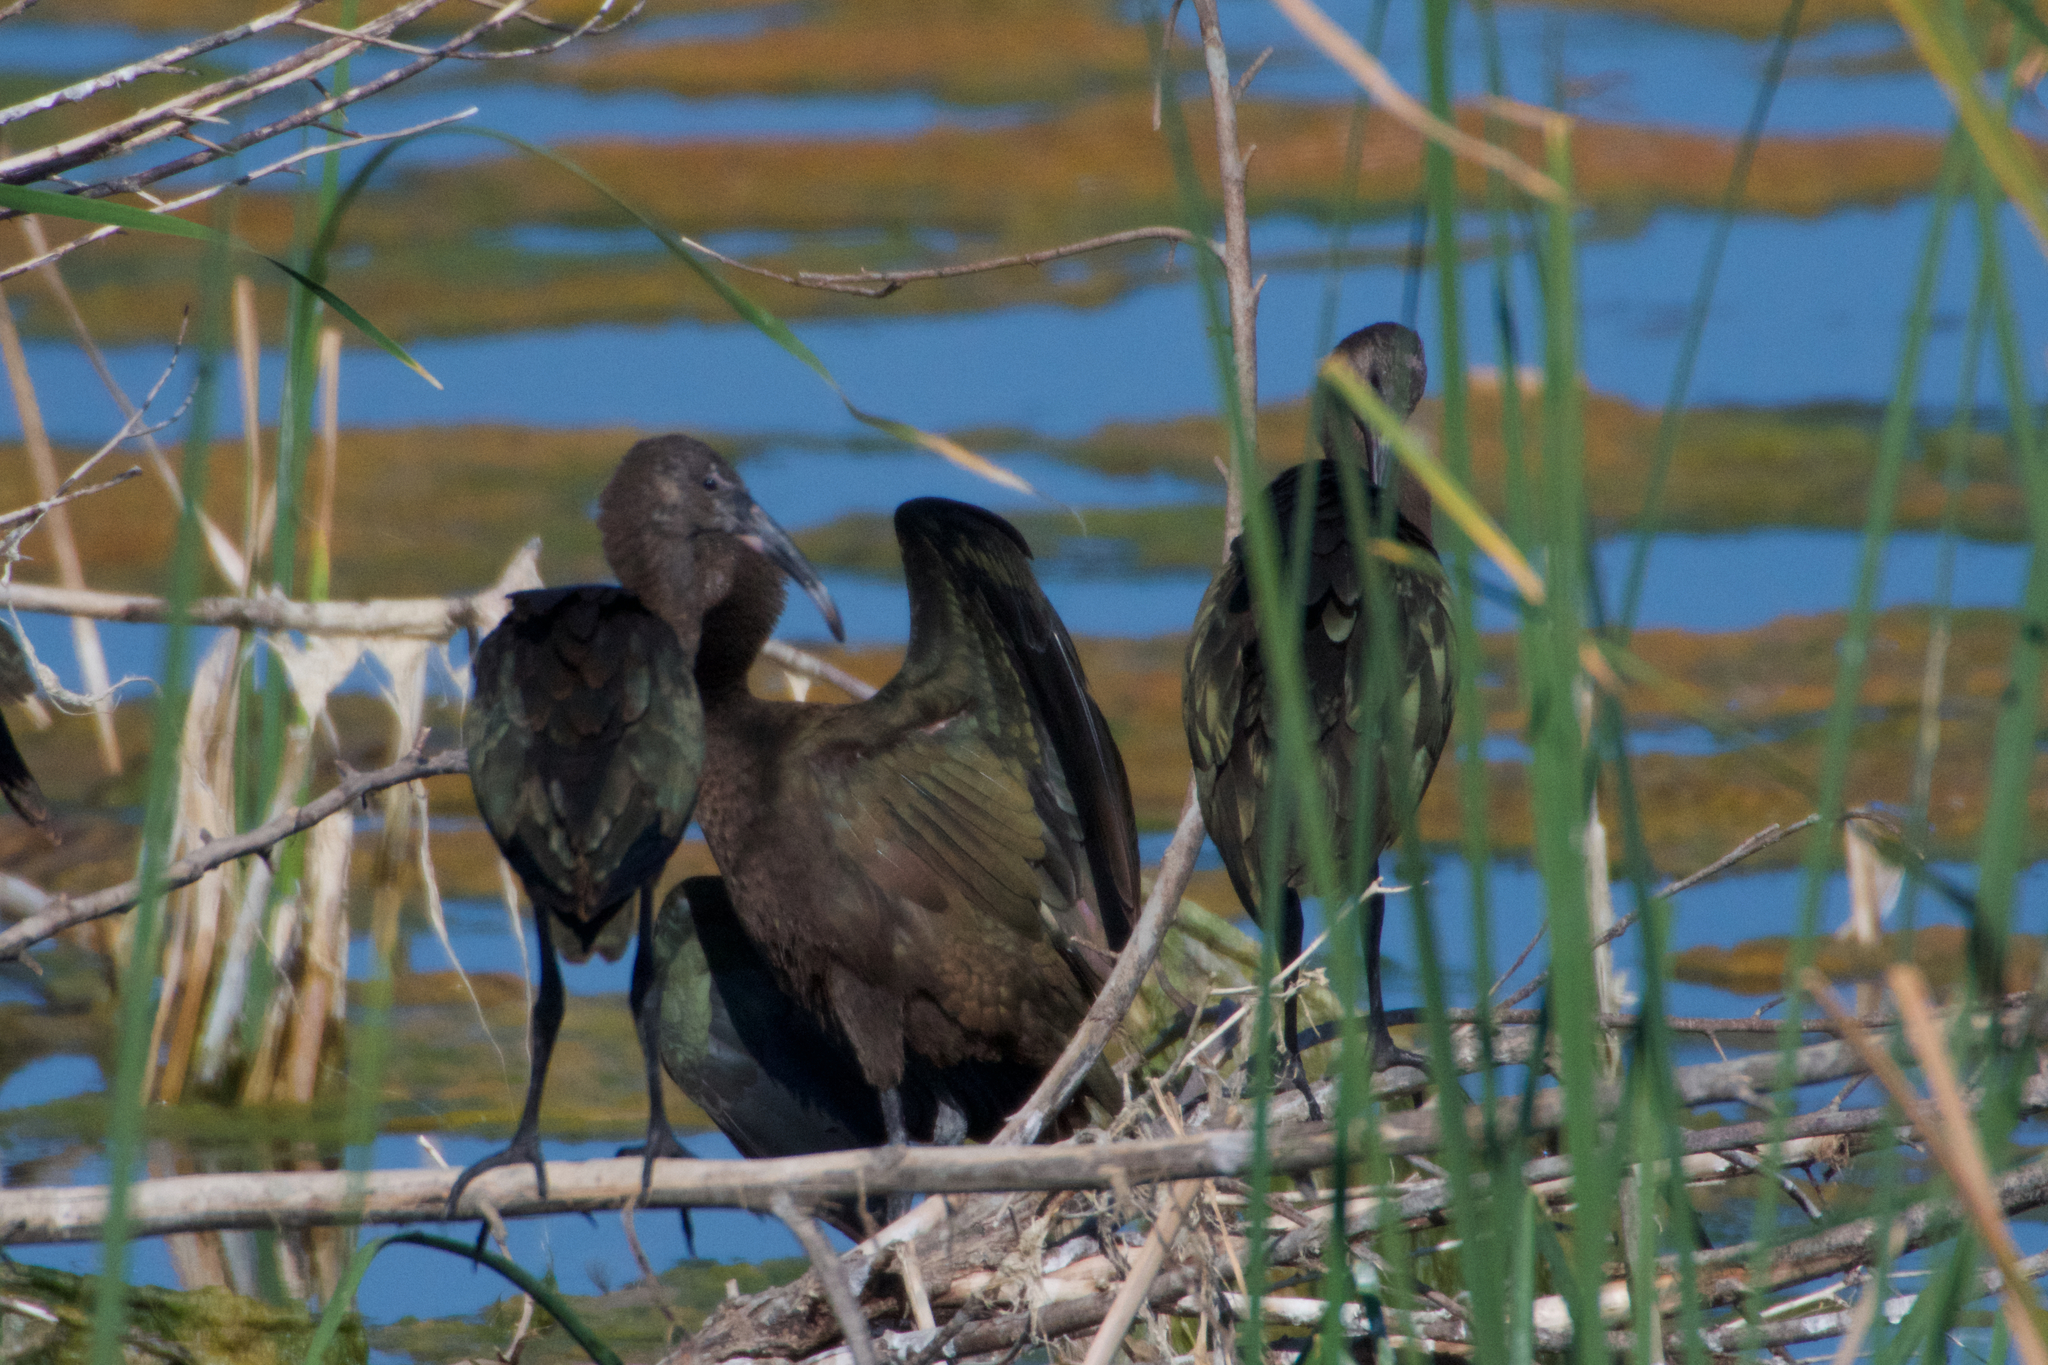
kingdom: Animalia
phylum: Chordata
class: Aves
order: Pelecaniformes
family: Threskiornithidae
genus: Plegadis
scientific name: Plegadis chihi
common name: White-faced ibis
